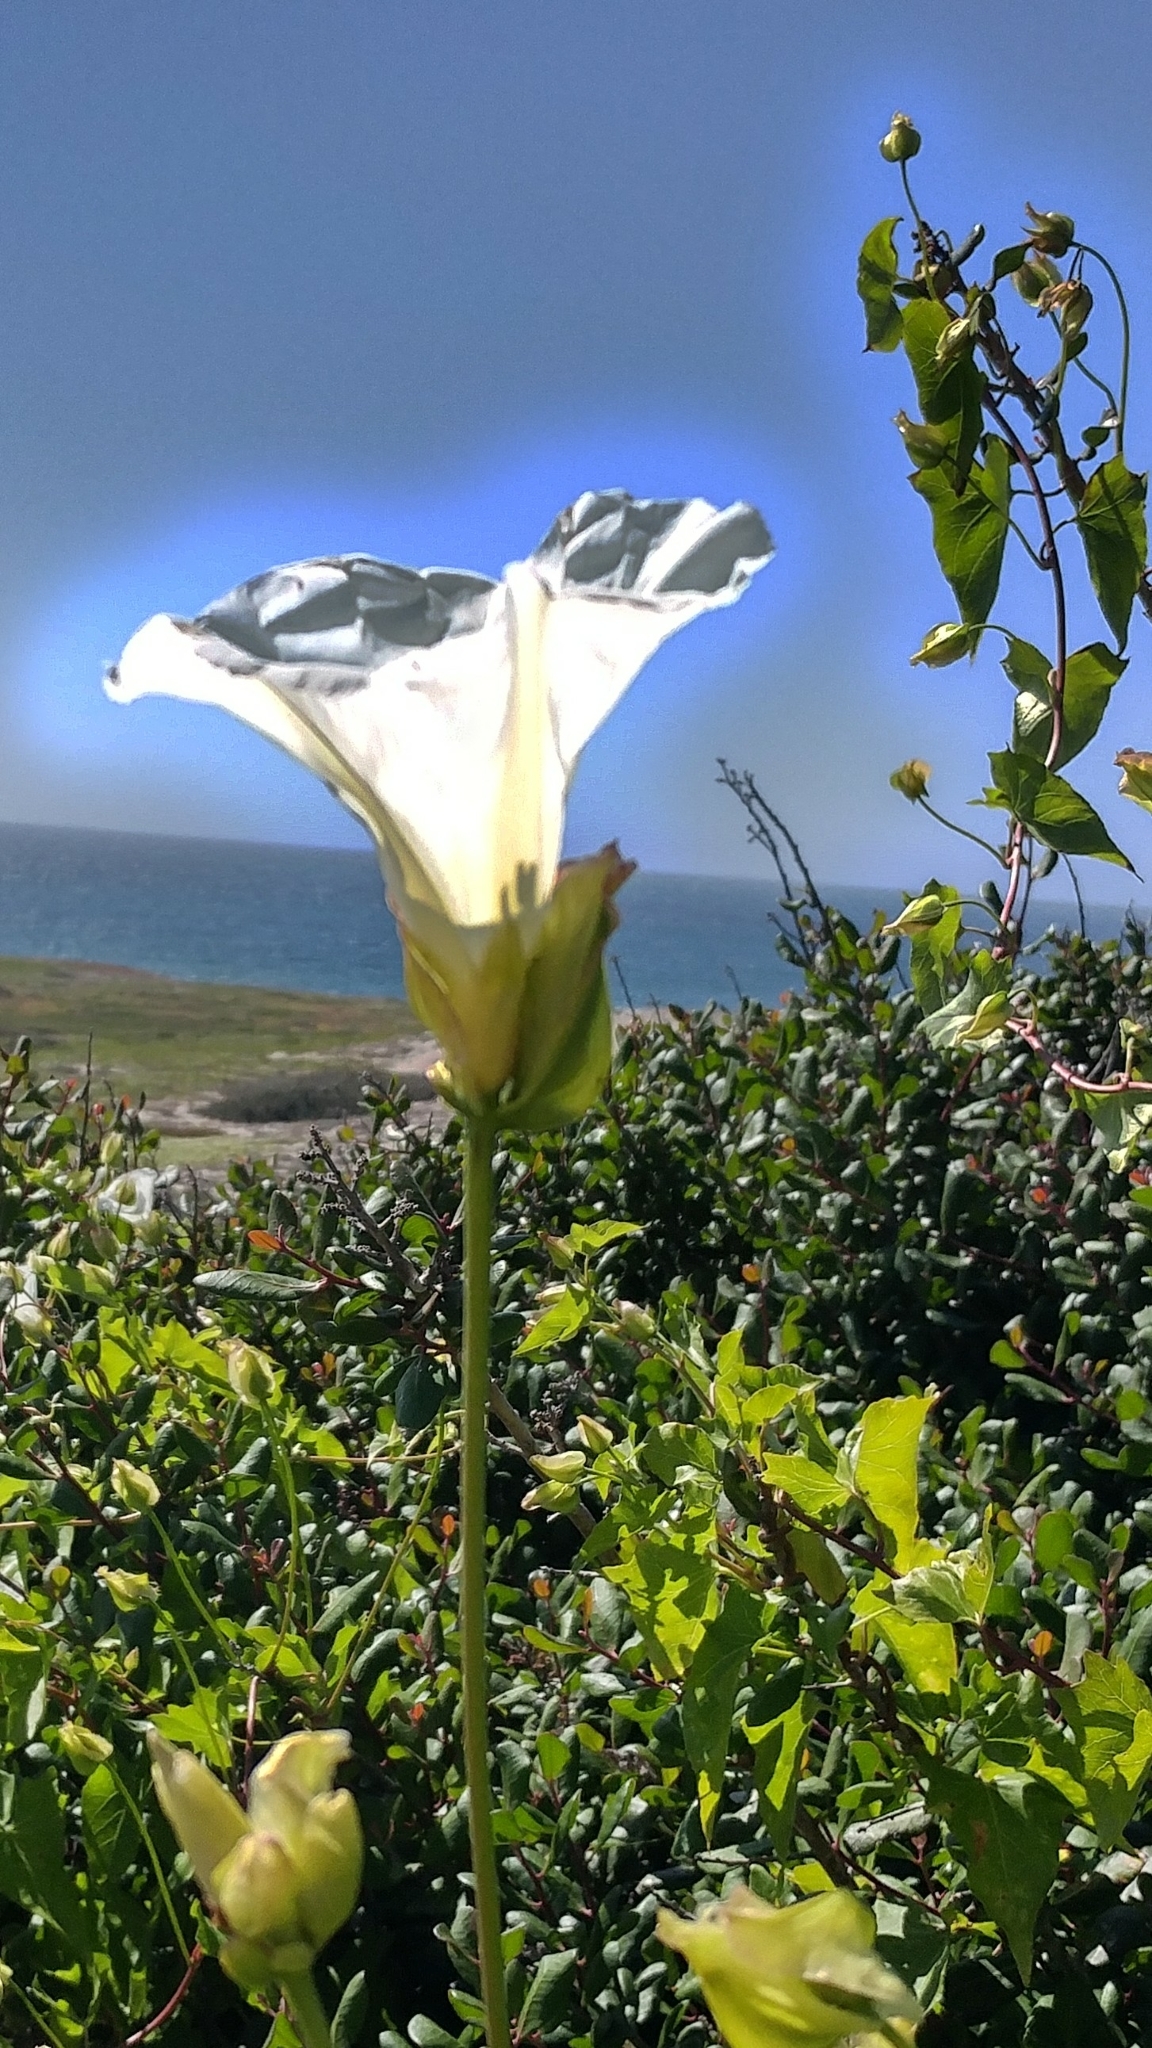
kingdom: Plantae
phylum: Tracheophyta
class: Magnoliopsida
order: Solanales
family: Convolvulaceae
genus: Calystegia
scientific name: Calystegia macrostegia
